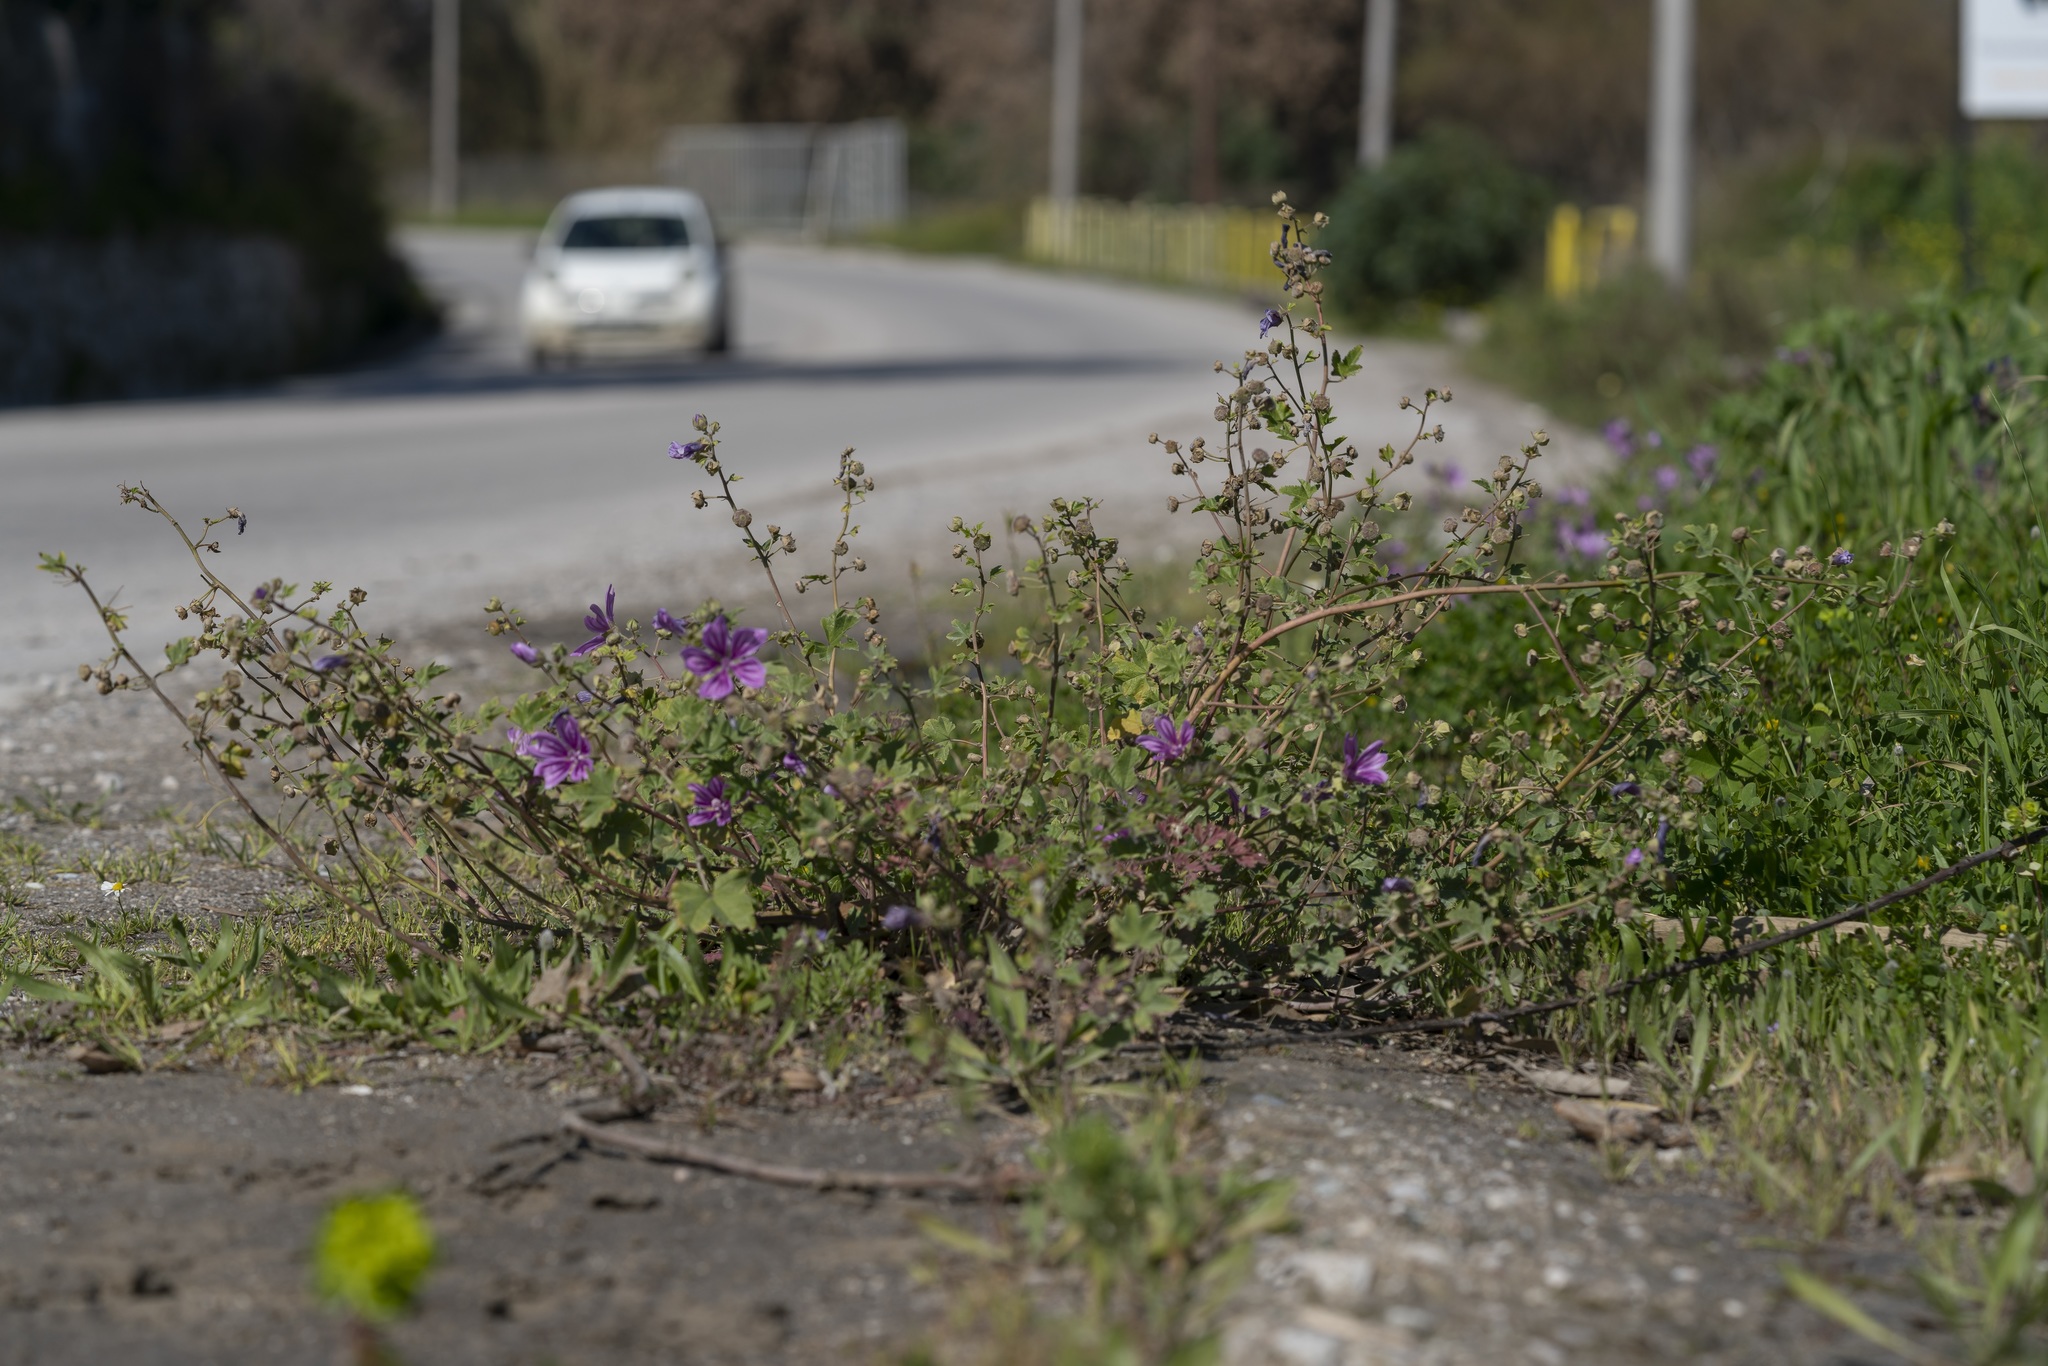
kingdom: Plantae
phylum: Tracheophyta
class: Magnoliopsida
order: Malvales
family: Malvaceae
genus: Malva
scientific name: Malva sylvestris
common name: Common mallow
